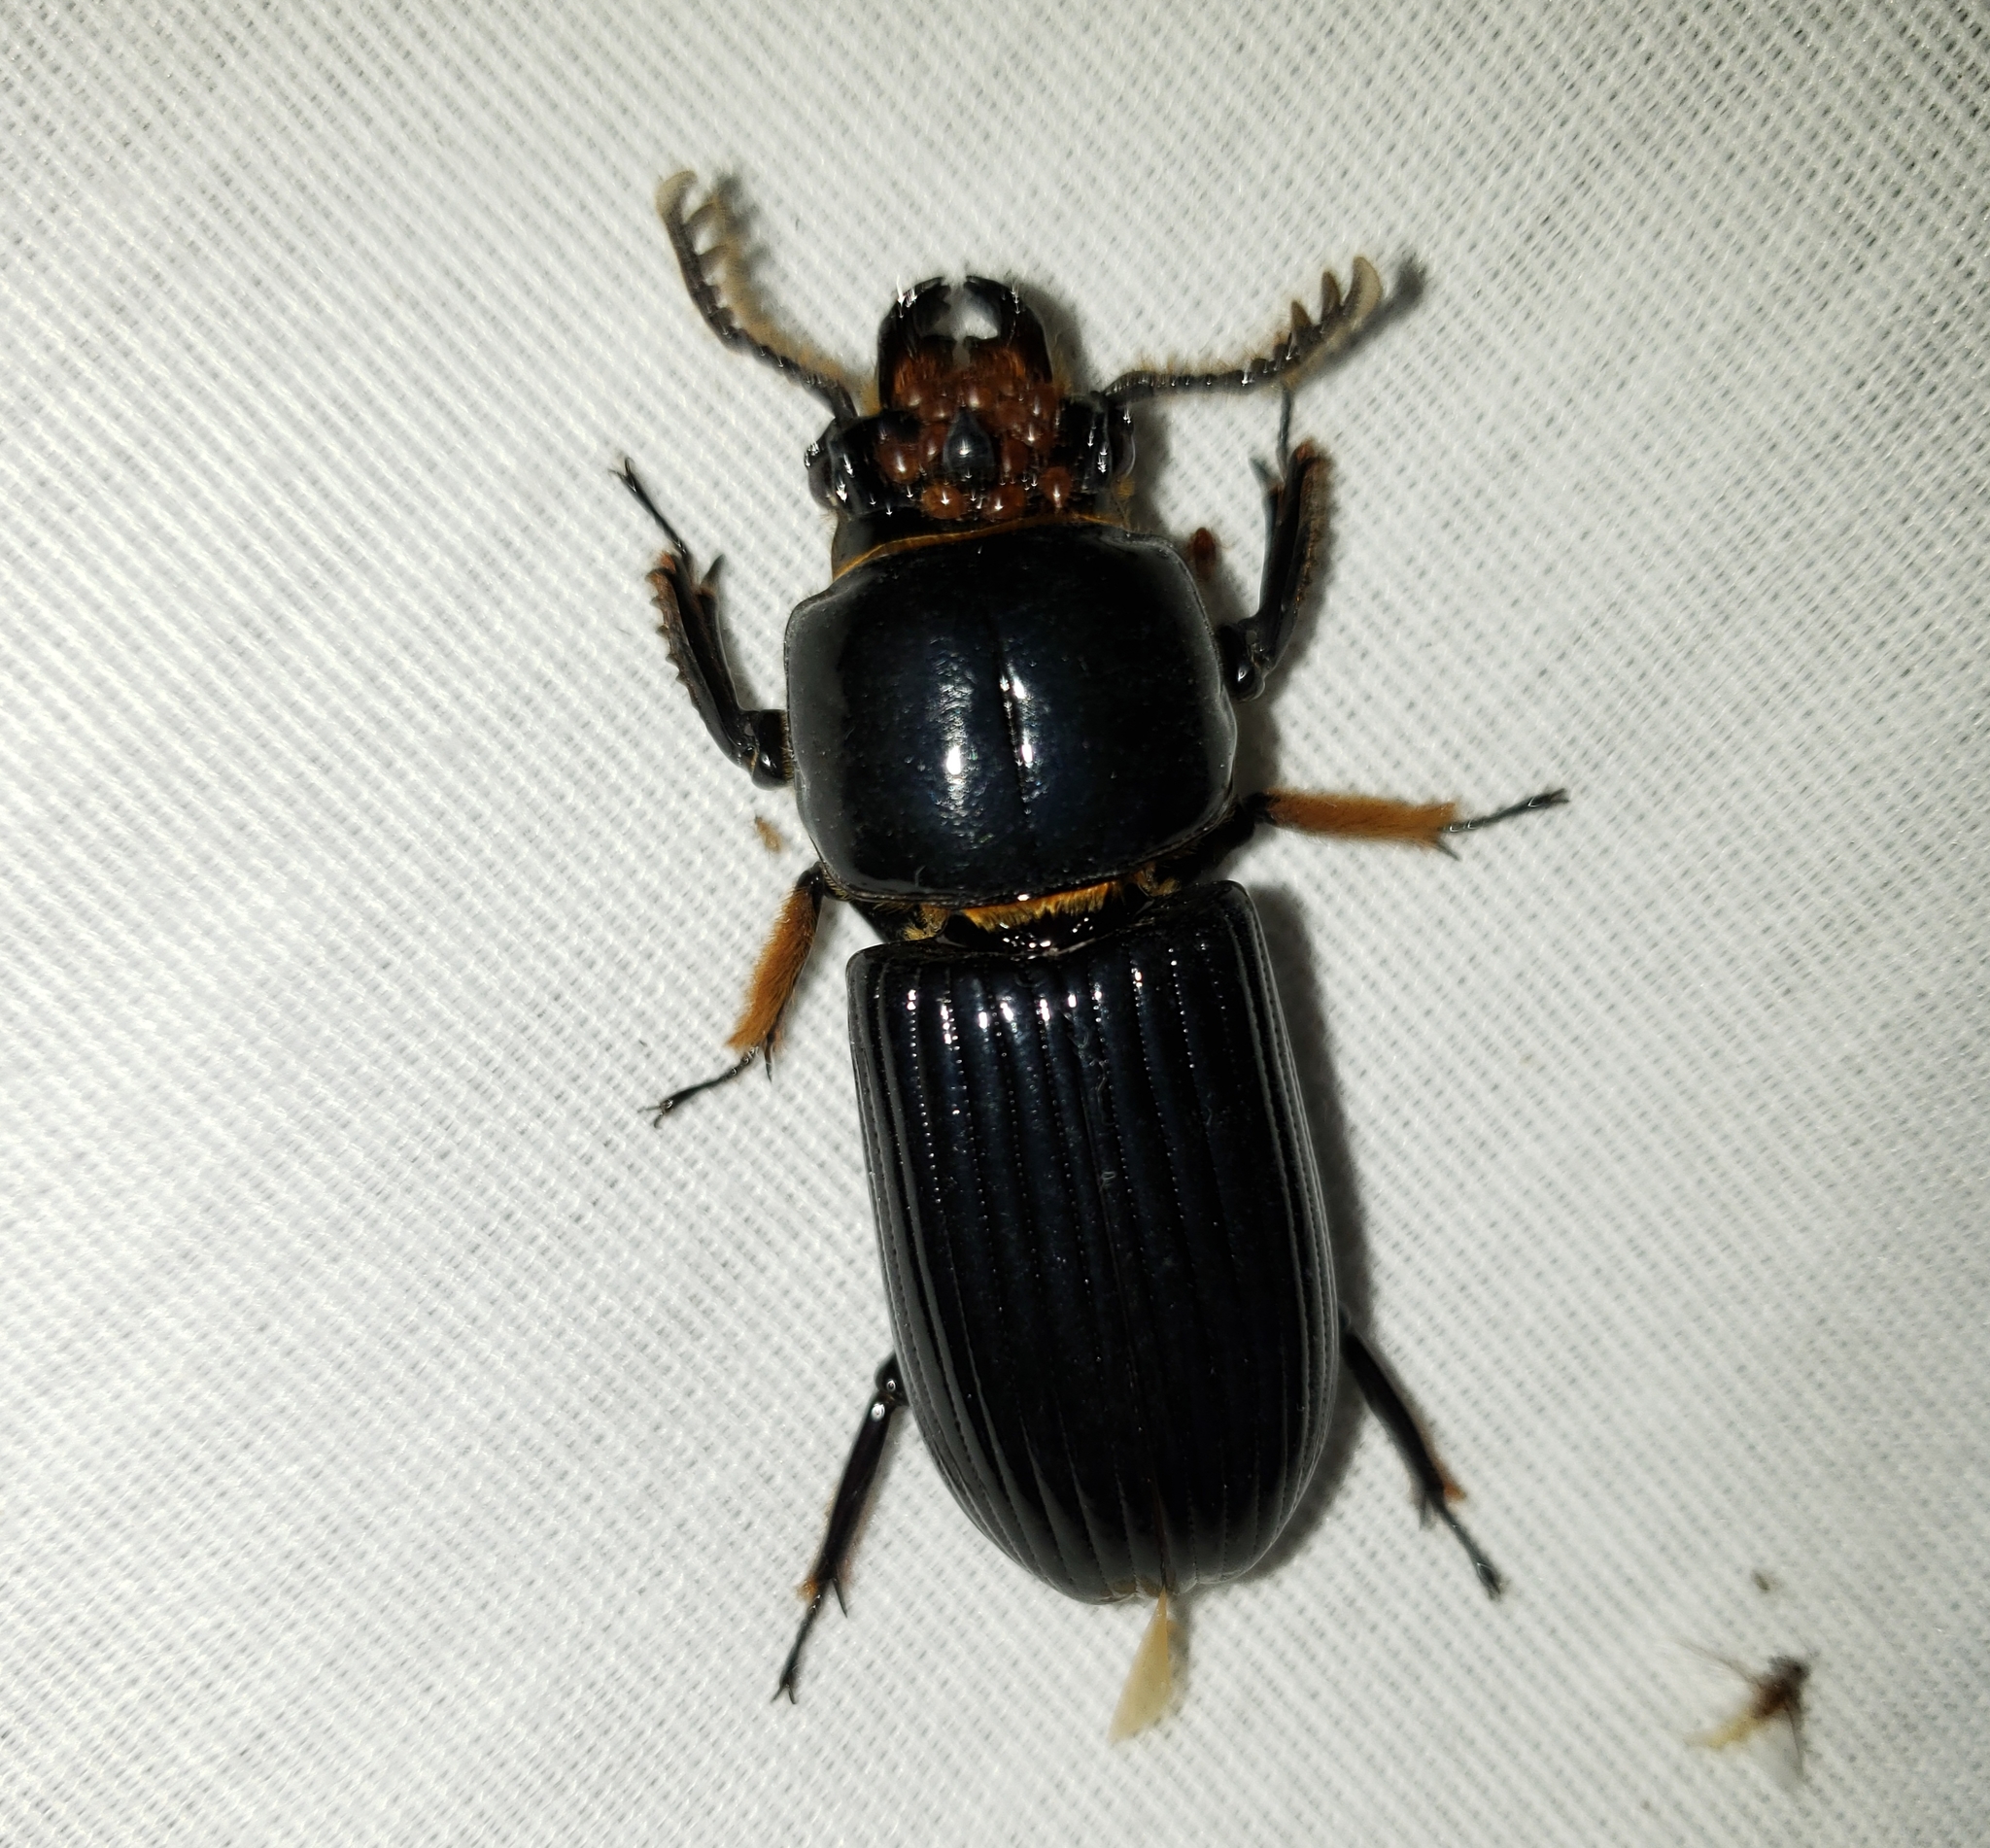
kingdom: Animalia
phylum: Arthropoda
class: Insecta
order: Coleoptera
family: Passalidae
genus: Odontotaenius
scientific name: Odontotaenius disjunctus
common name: Patent leather beetle
